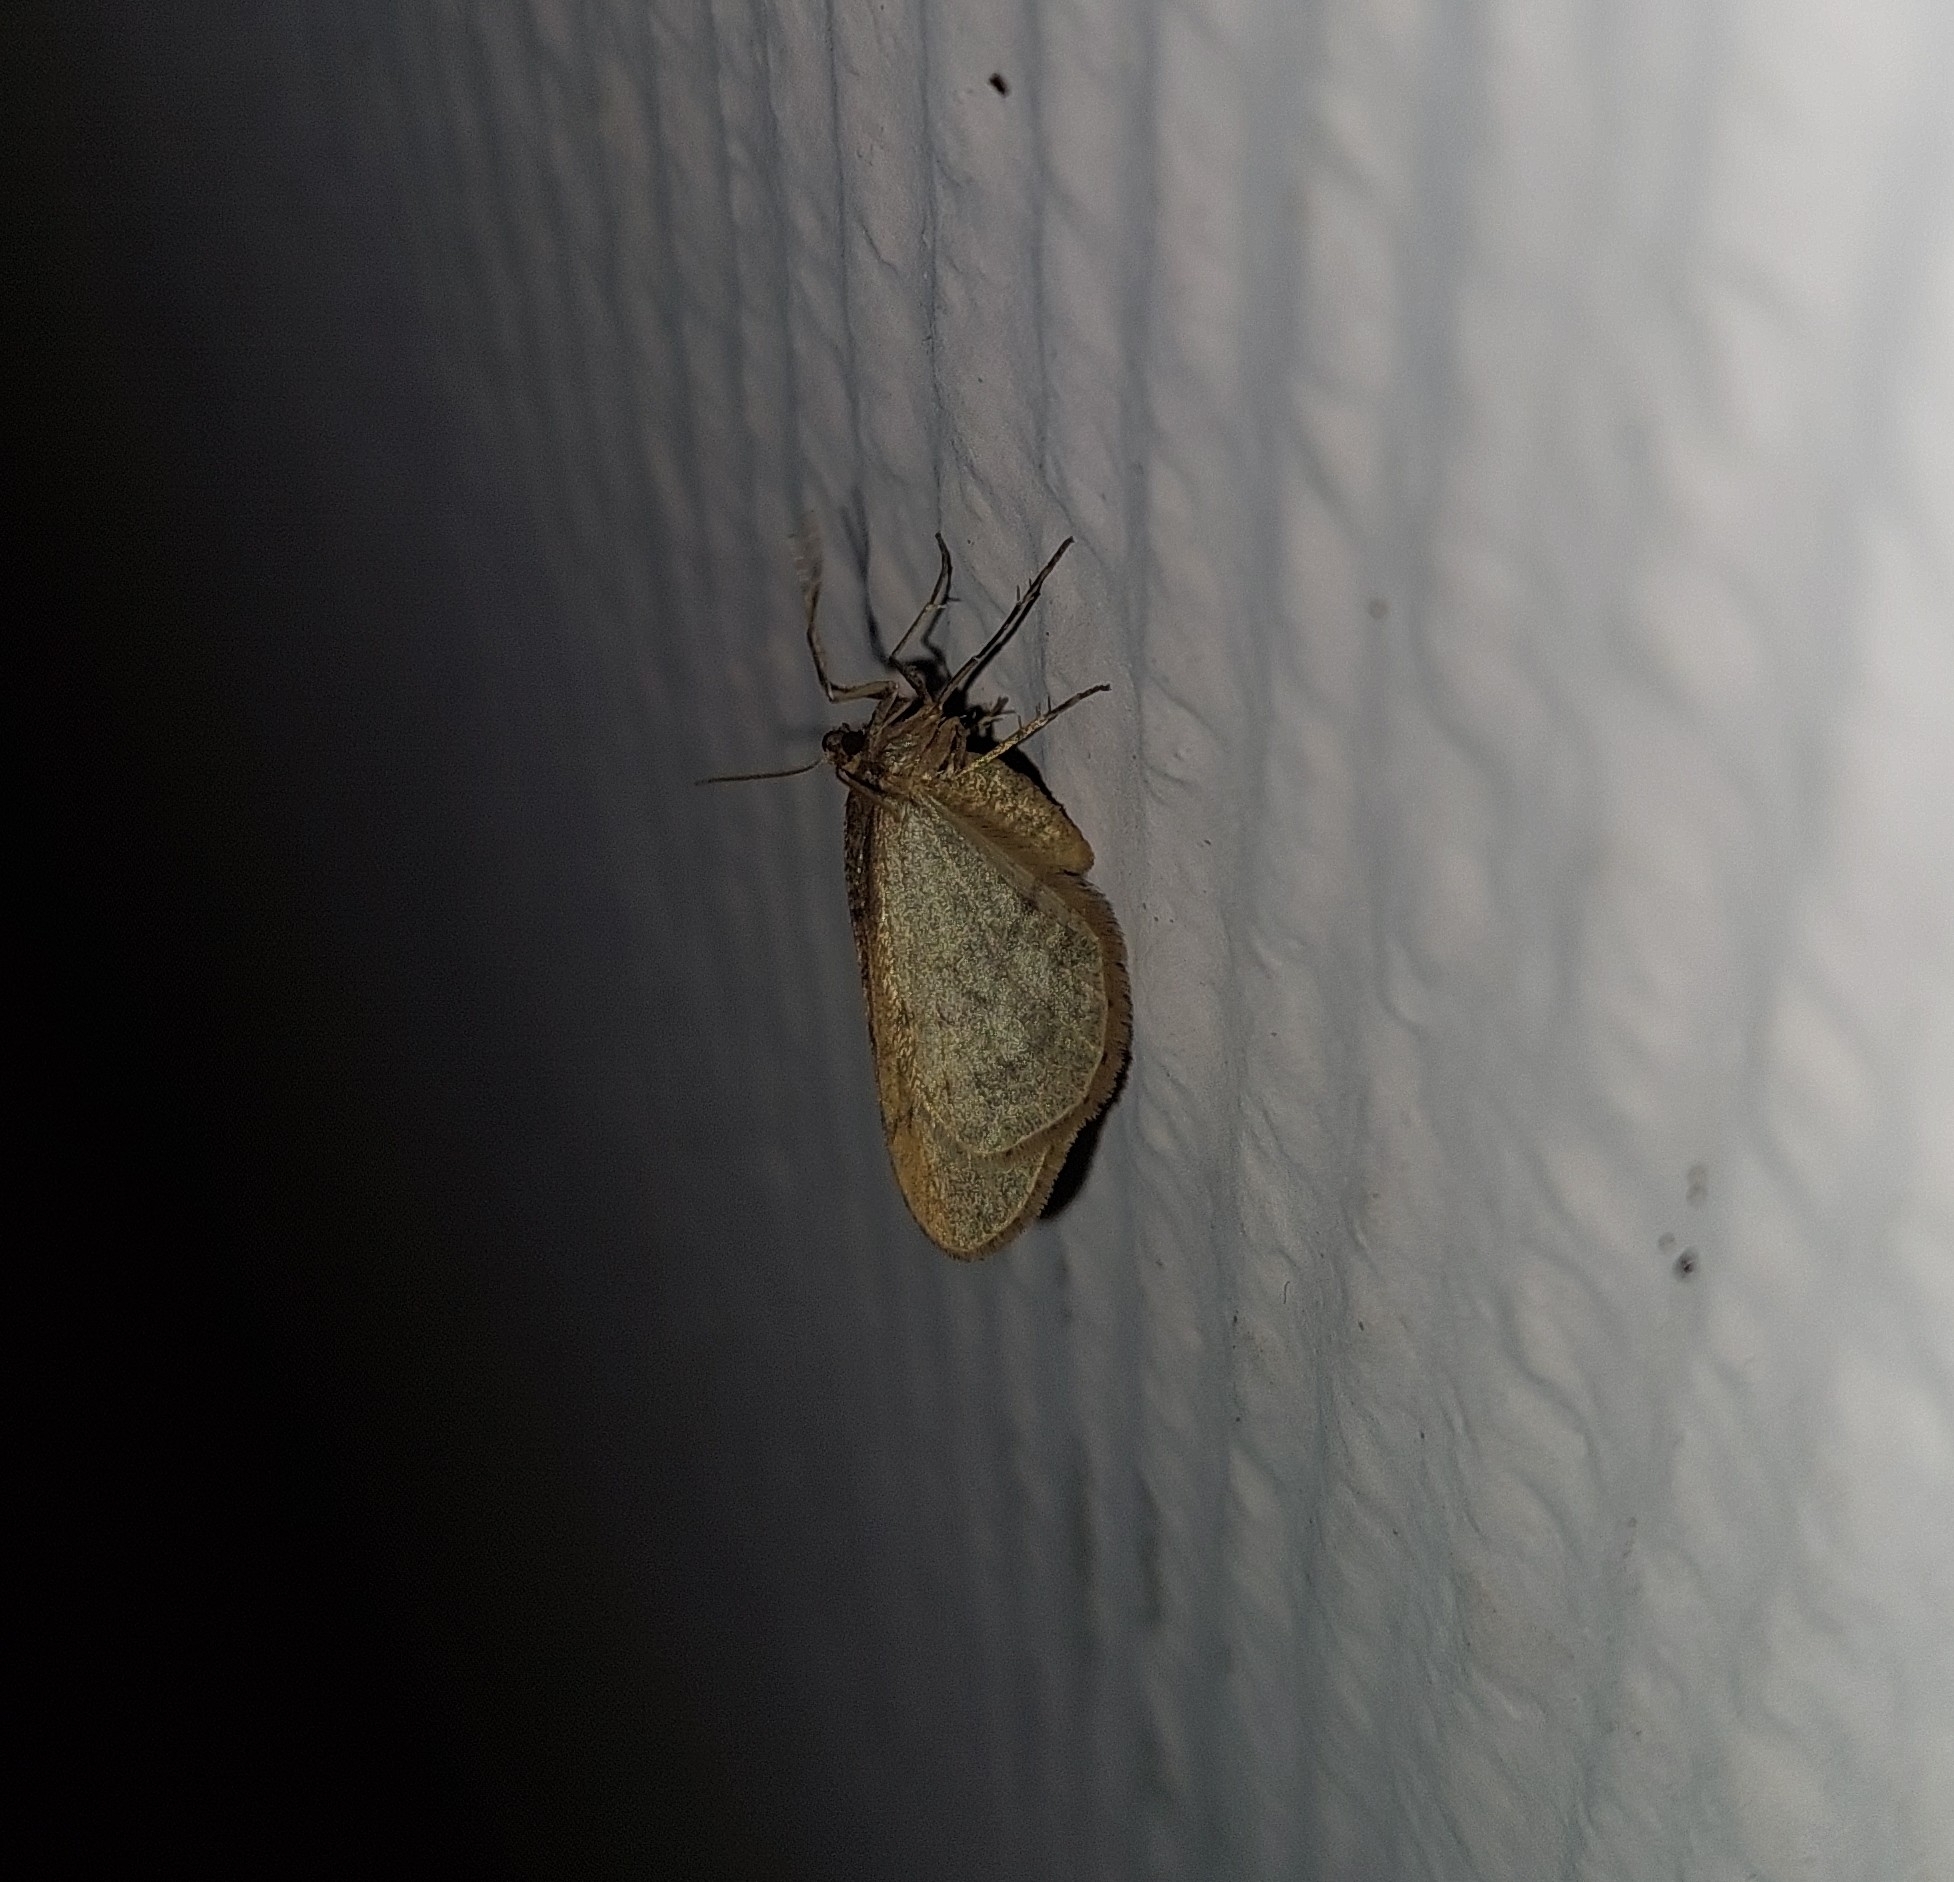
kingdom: Animalia
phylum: Arthropoda
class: Insecta
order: Lepidoptera
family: Geometridae
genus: Operophtera
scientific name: Operophtera brumata
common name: Winter moth
